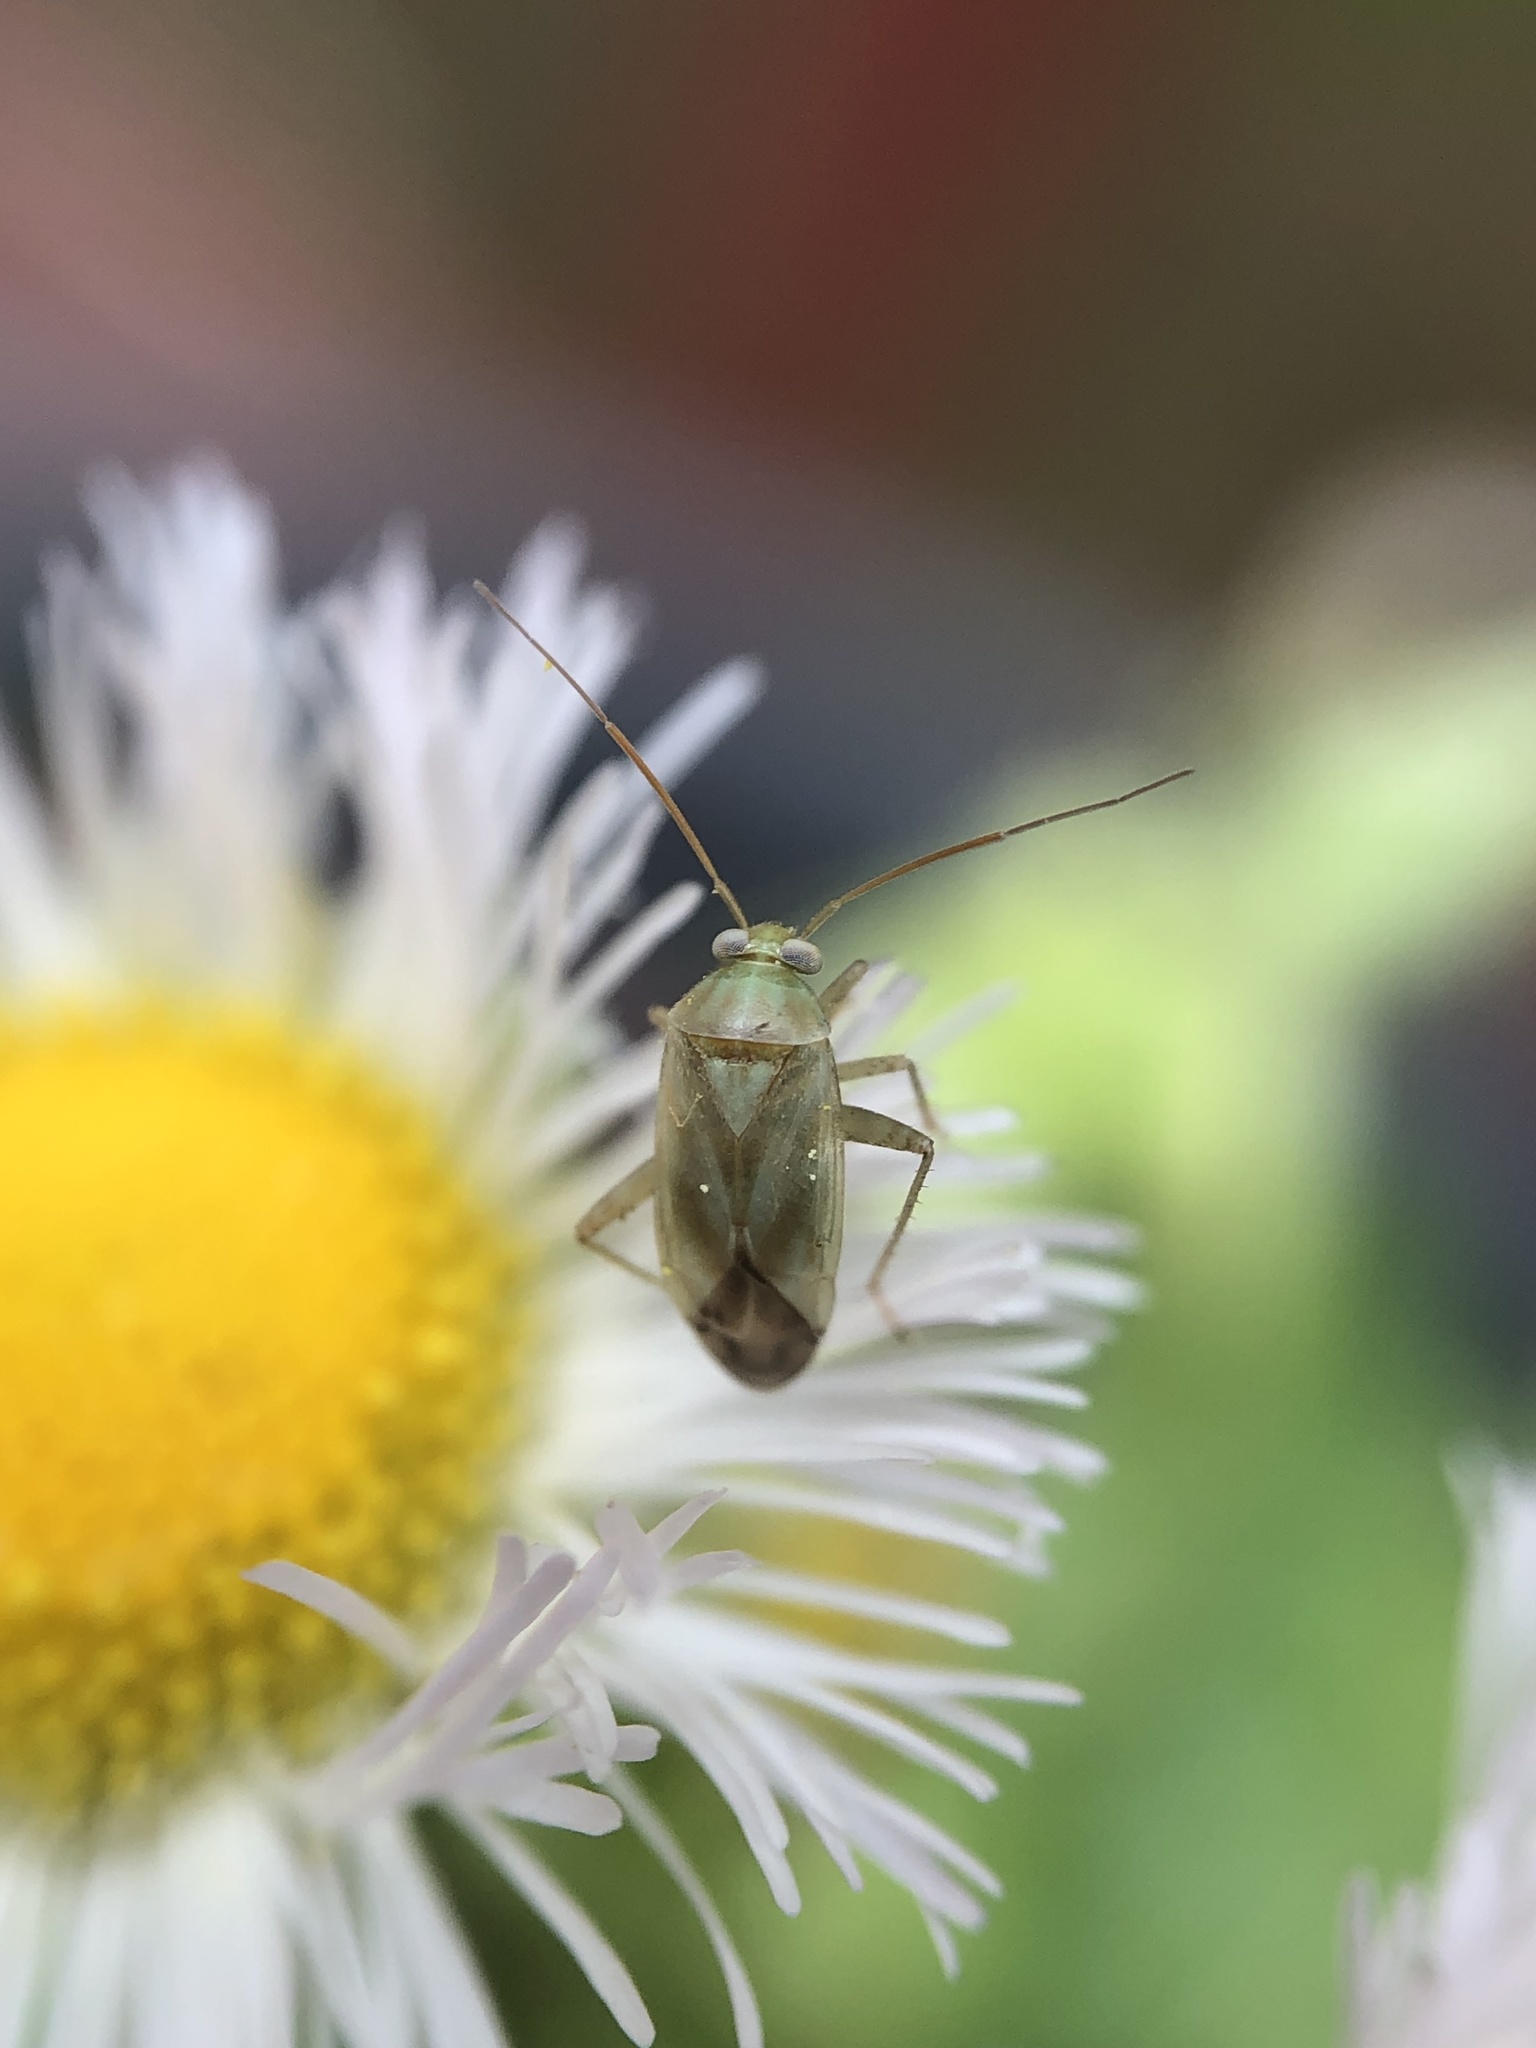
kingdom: Animalia
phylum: Arthropoda
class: Insecta
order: Hemiptera
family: Miridae
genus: Taylorilygus
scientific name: Taylorilygus apicalis
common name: Plant bug
